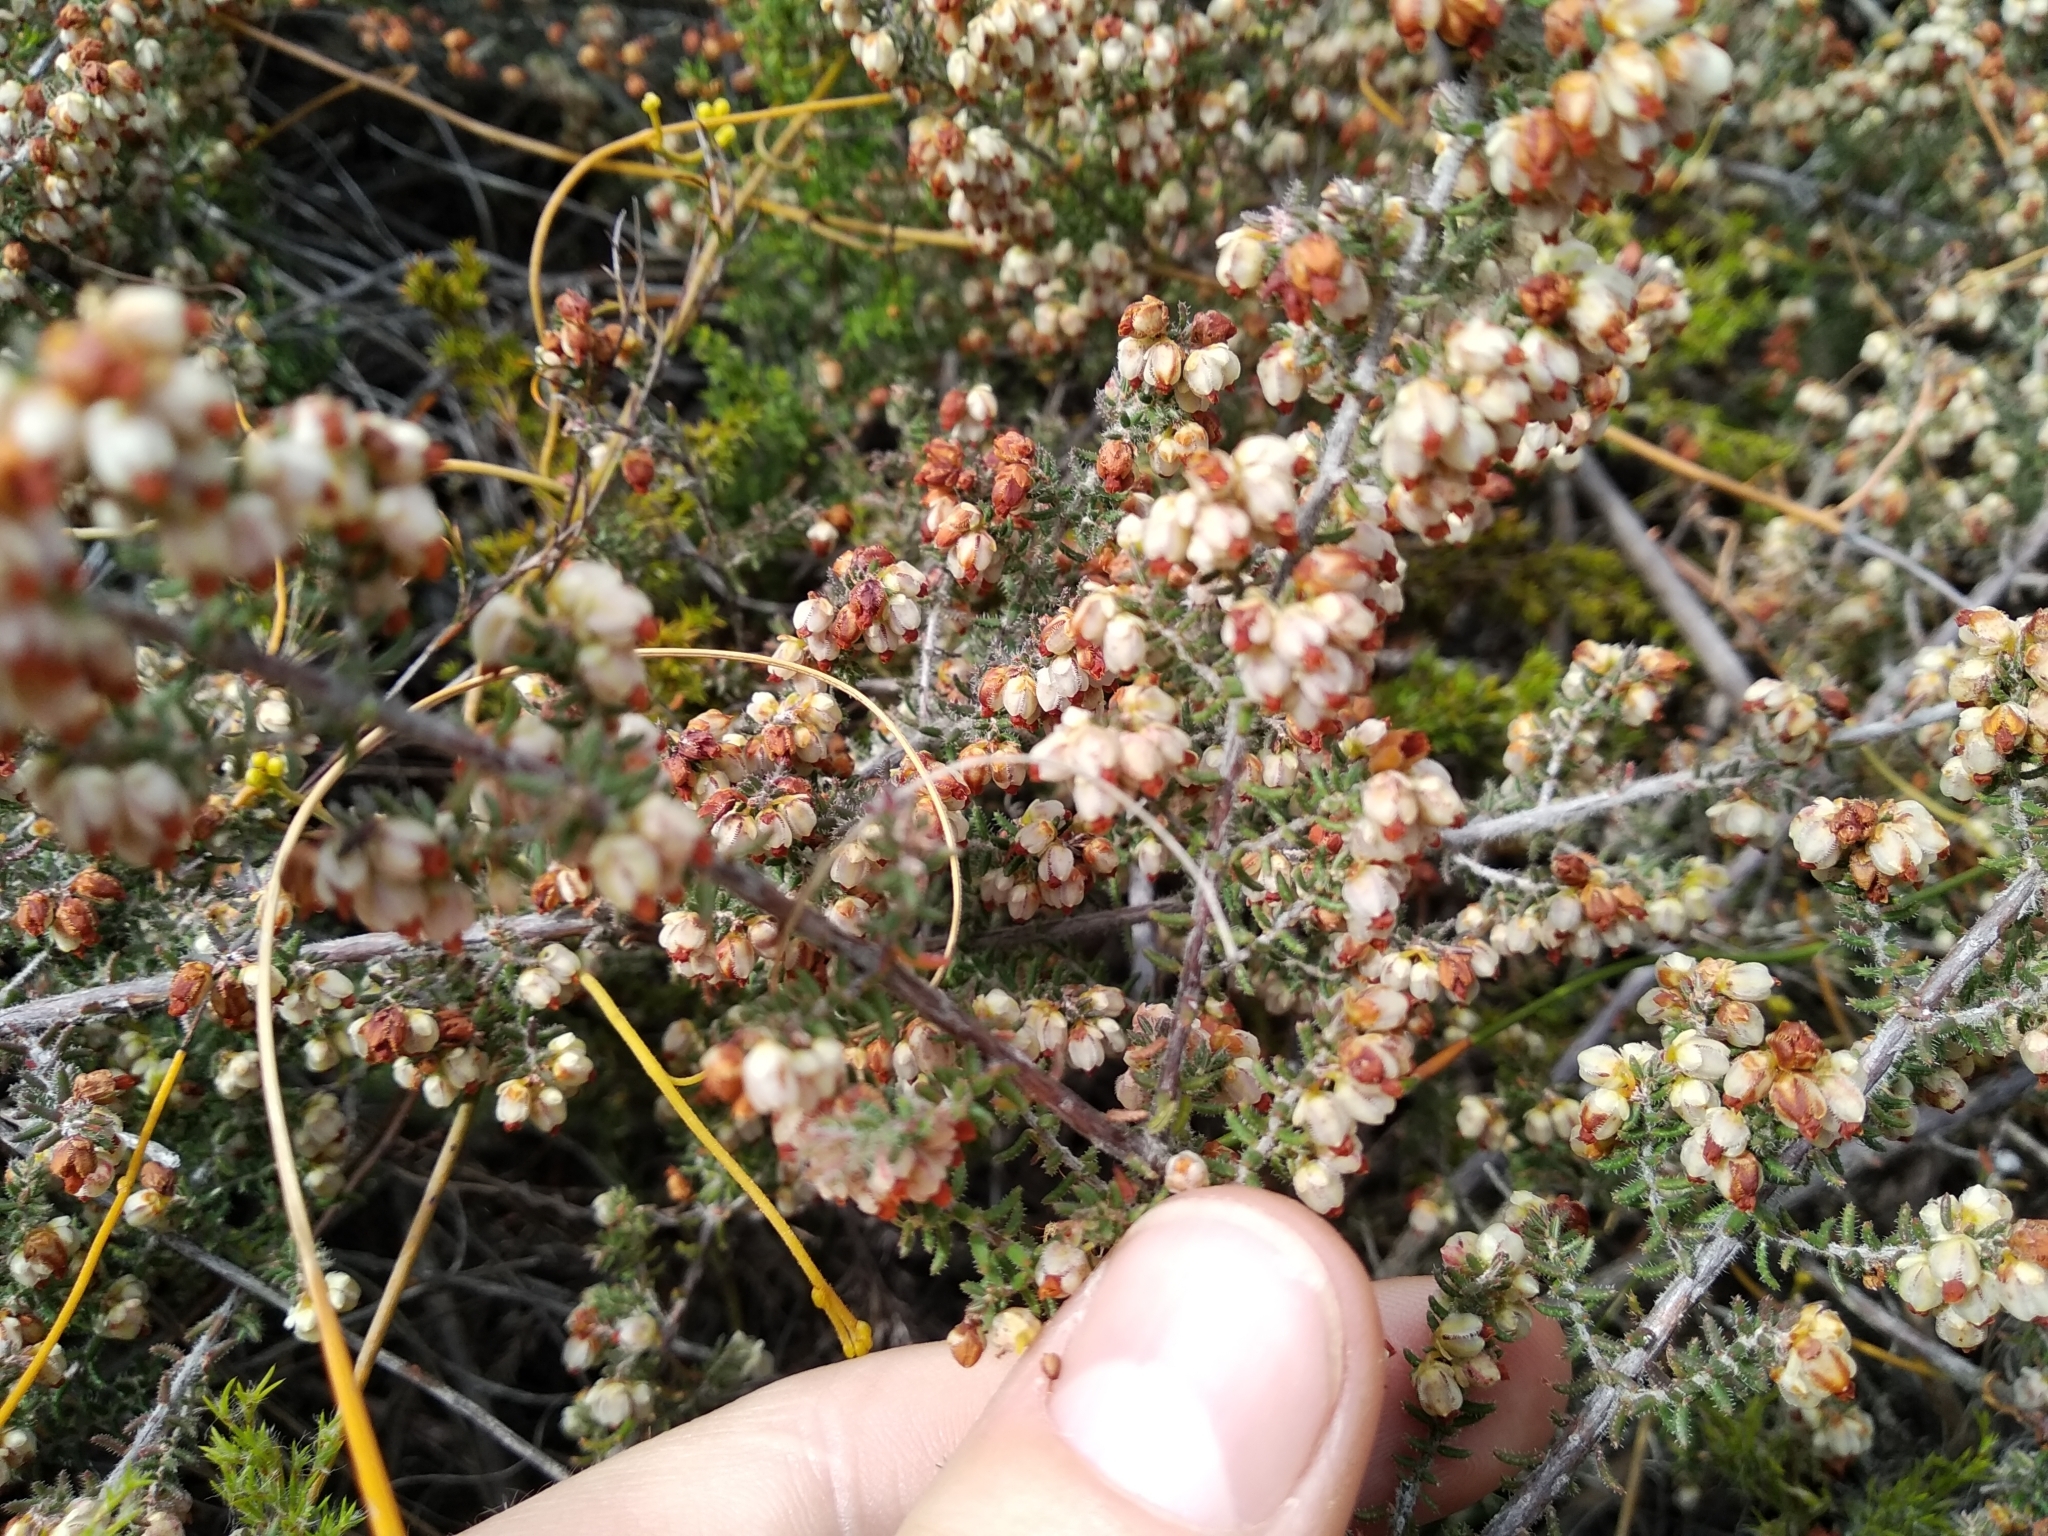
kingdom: Plantae
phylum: Tracheophyta
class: Magnoliopsida
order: Ericales
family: Ericaceae
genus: Erica
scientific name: Erica totta
